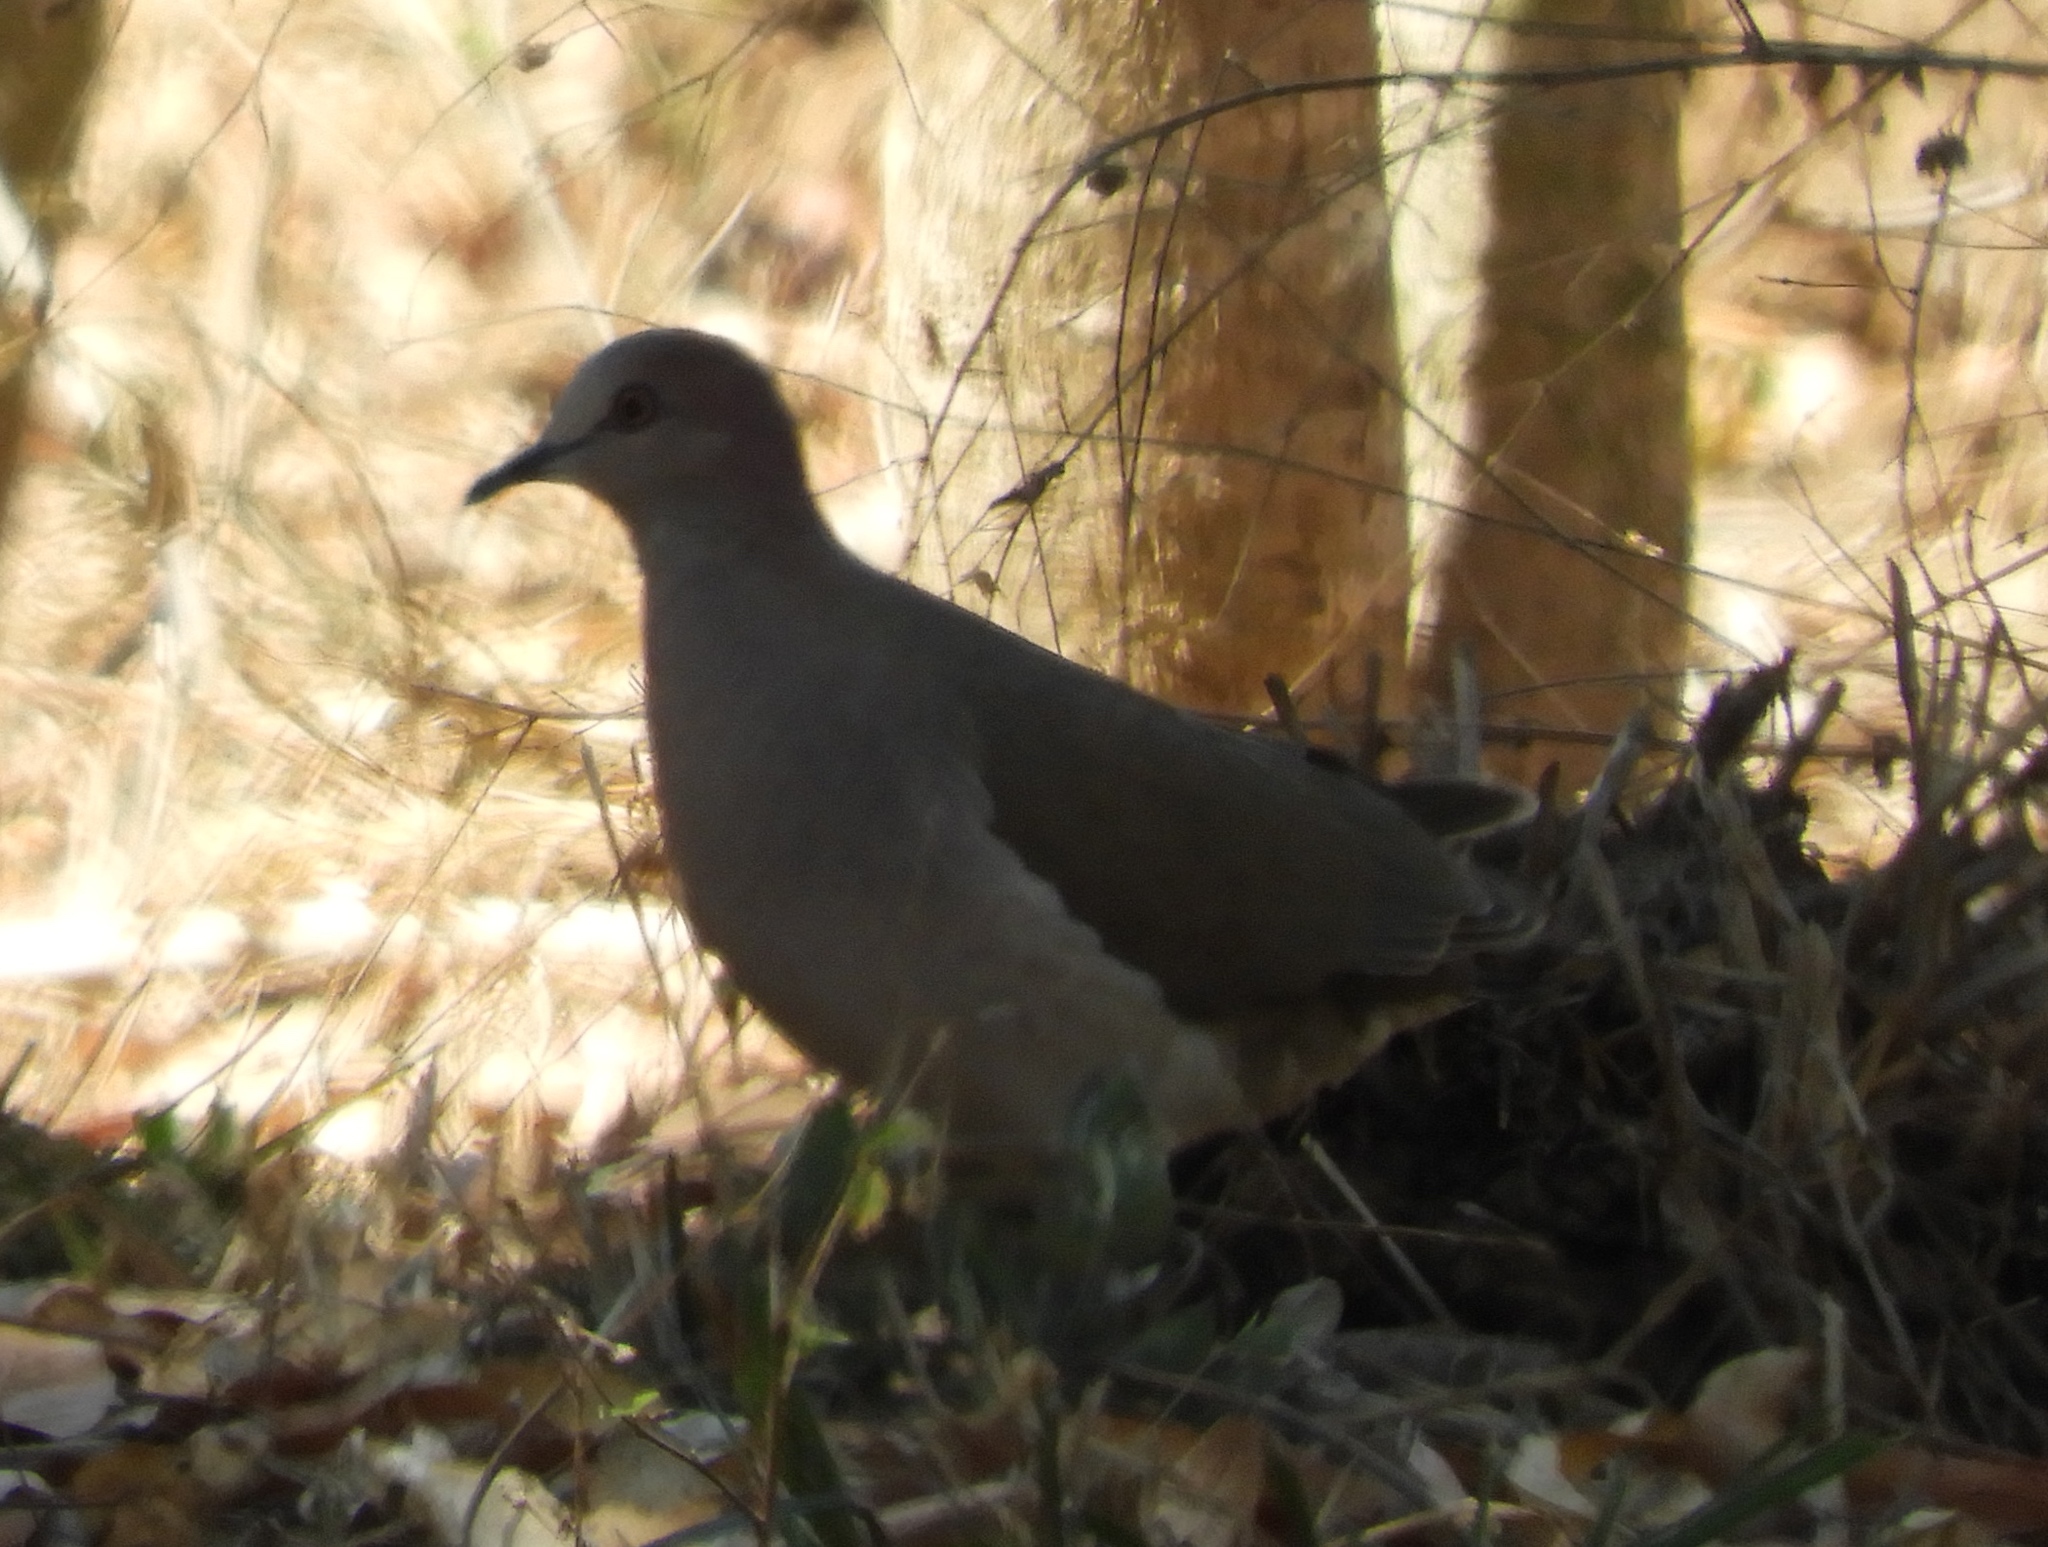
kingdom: Animalia
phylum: Chordata
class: Aves
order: Columbiformes
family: Columbidae
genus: Leptotila
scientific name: Leptotila verreauxi
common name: White-tipped dove
